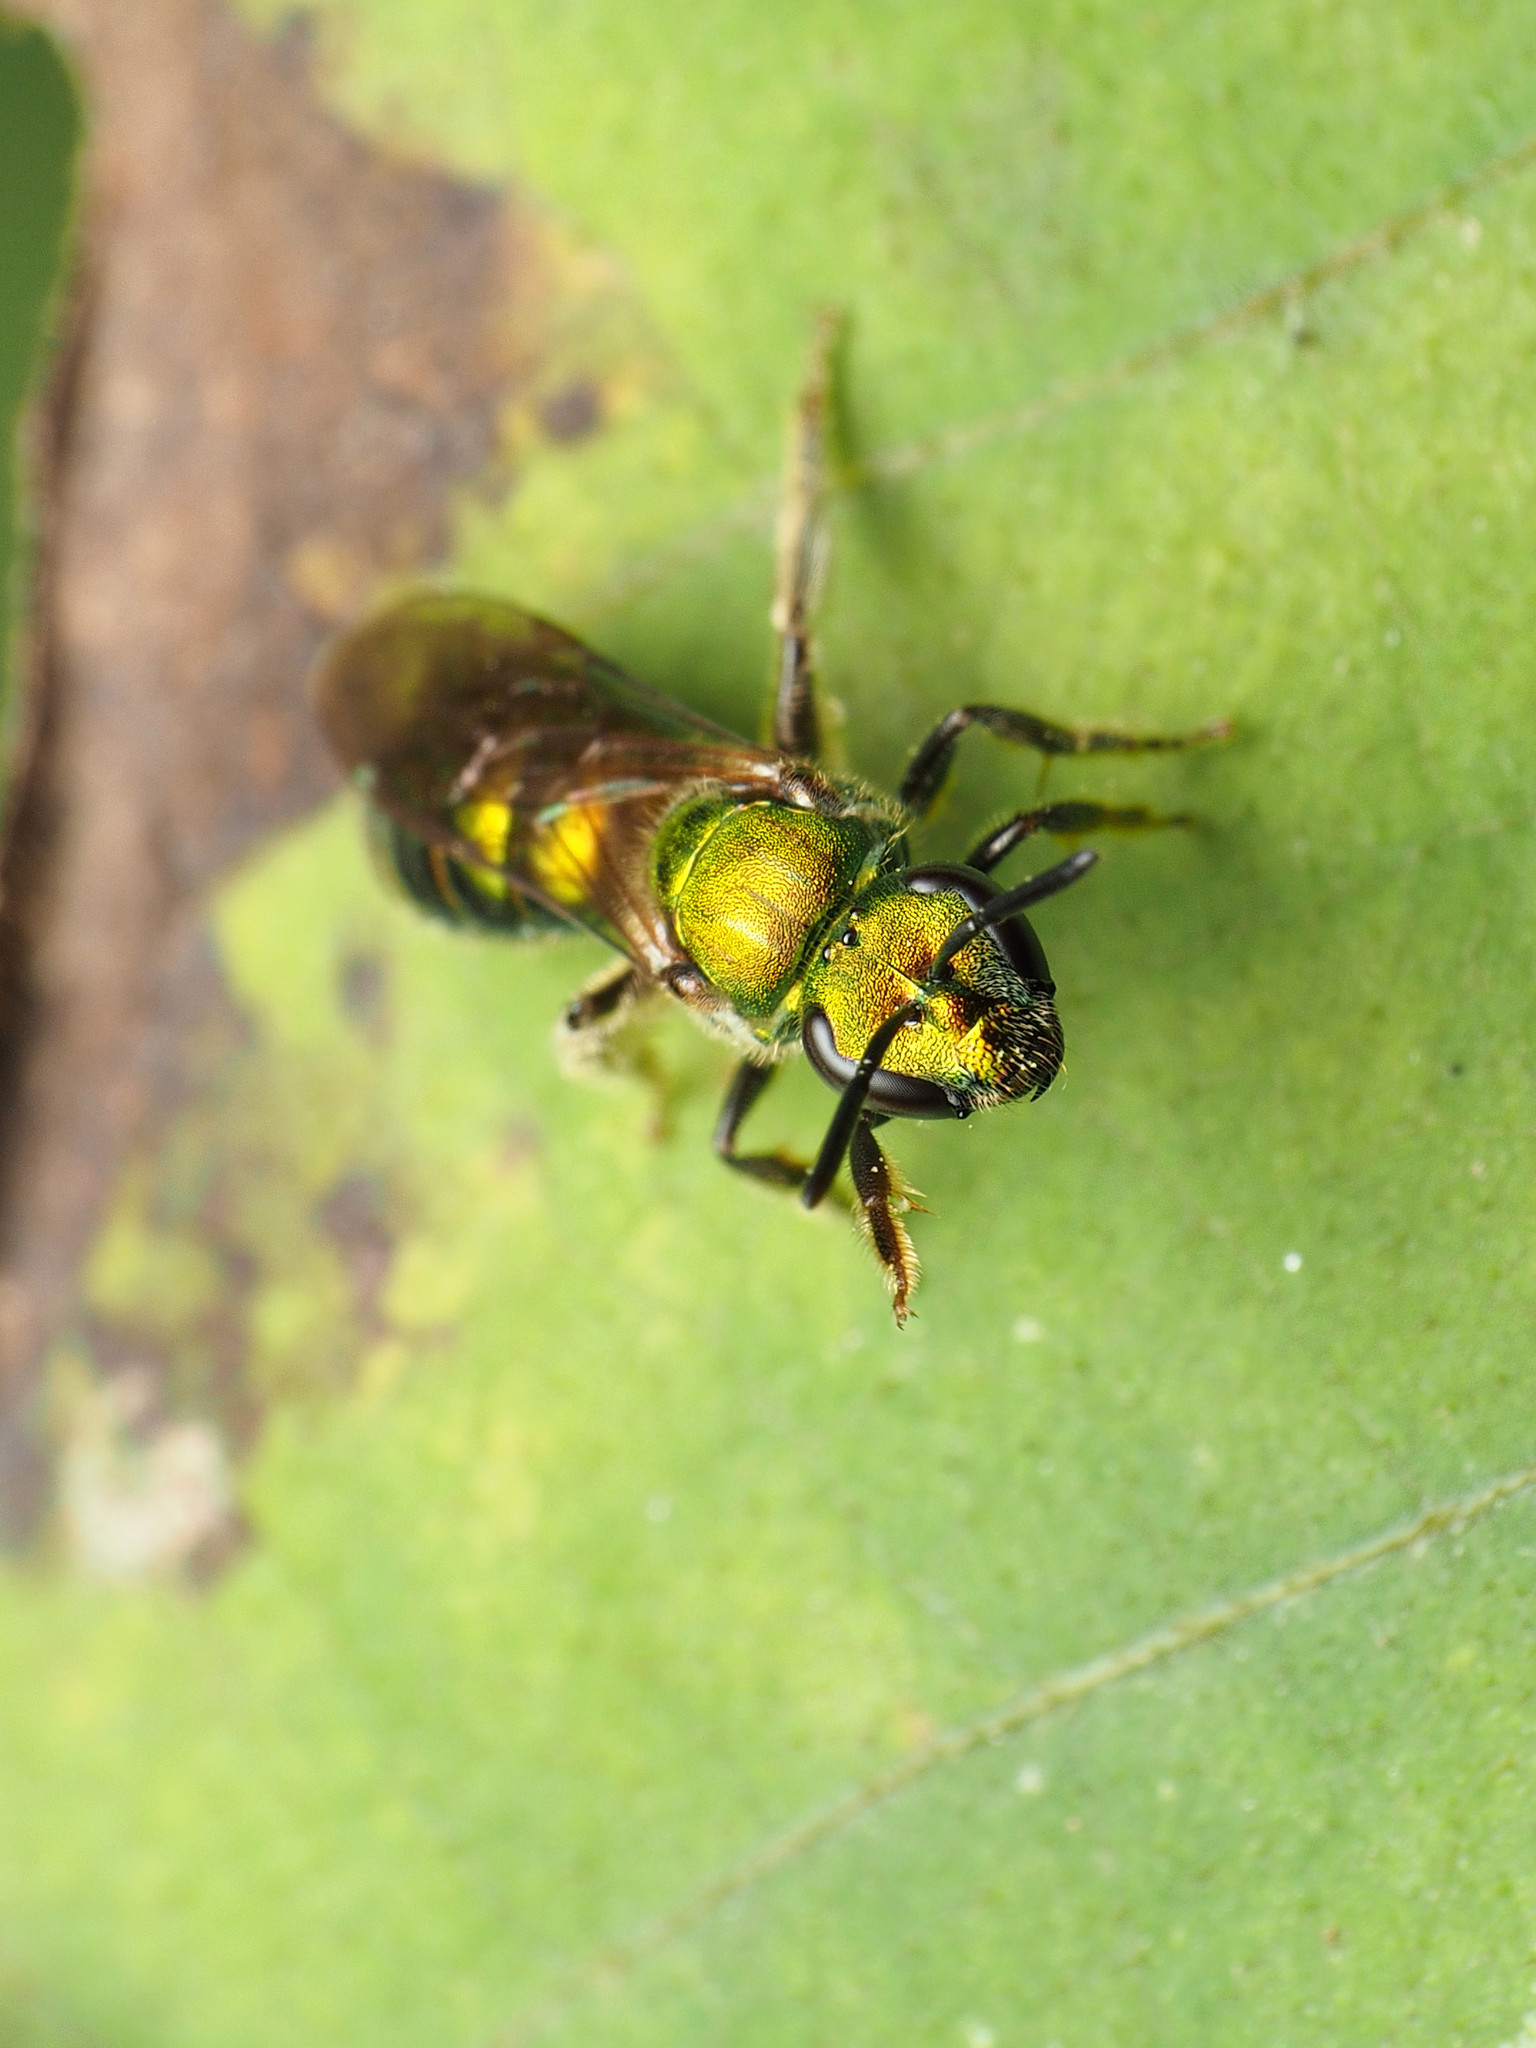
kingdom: Animalia
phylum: Arthropoda
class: Insecta
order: Hymenoptera
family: Halictidae
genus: Augochlora
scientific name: Augochlora pura
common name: Pure green sweat bee
